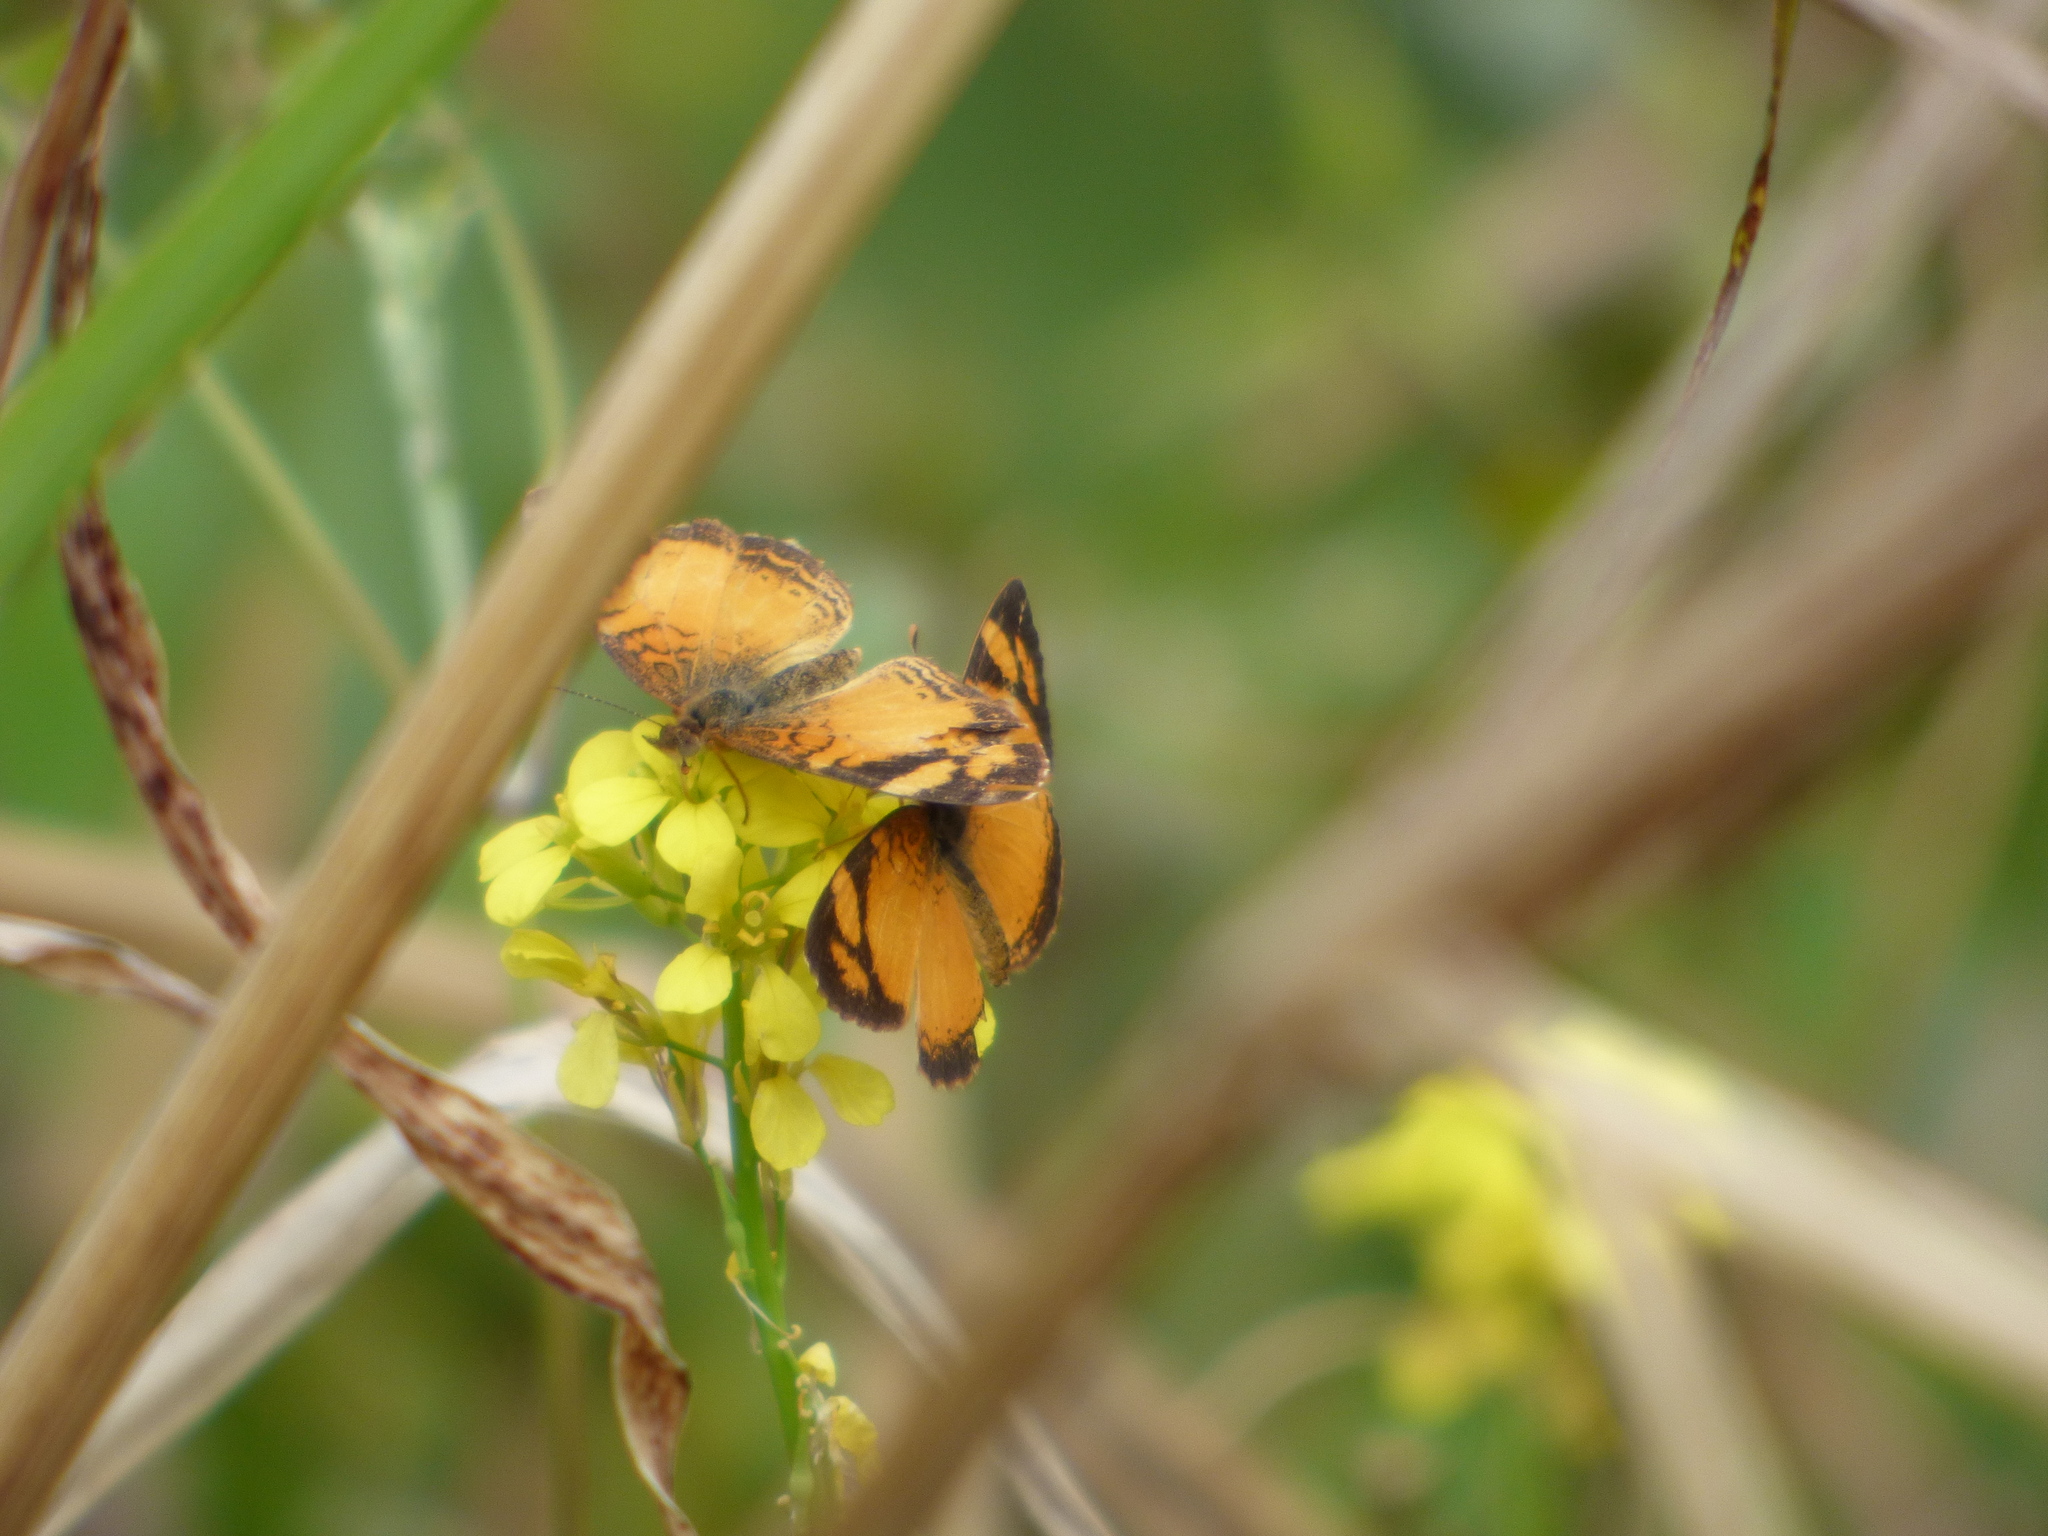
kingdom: Animalia
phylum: Arthropoda
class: Insecta
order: Lepidoptera
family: Nymphalidae
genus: Tegosa
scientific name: Tegosa claudina
